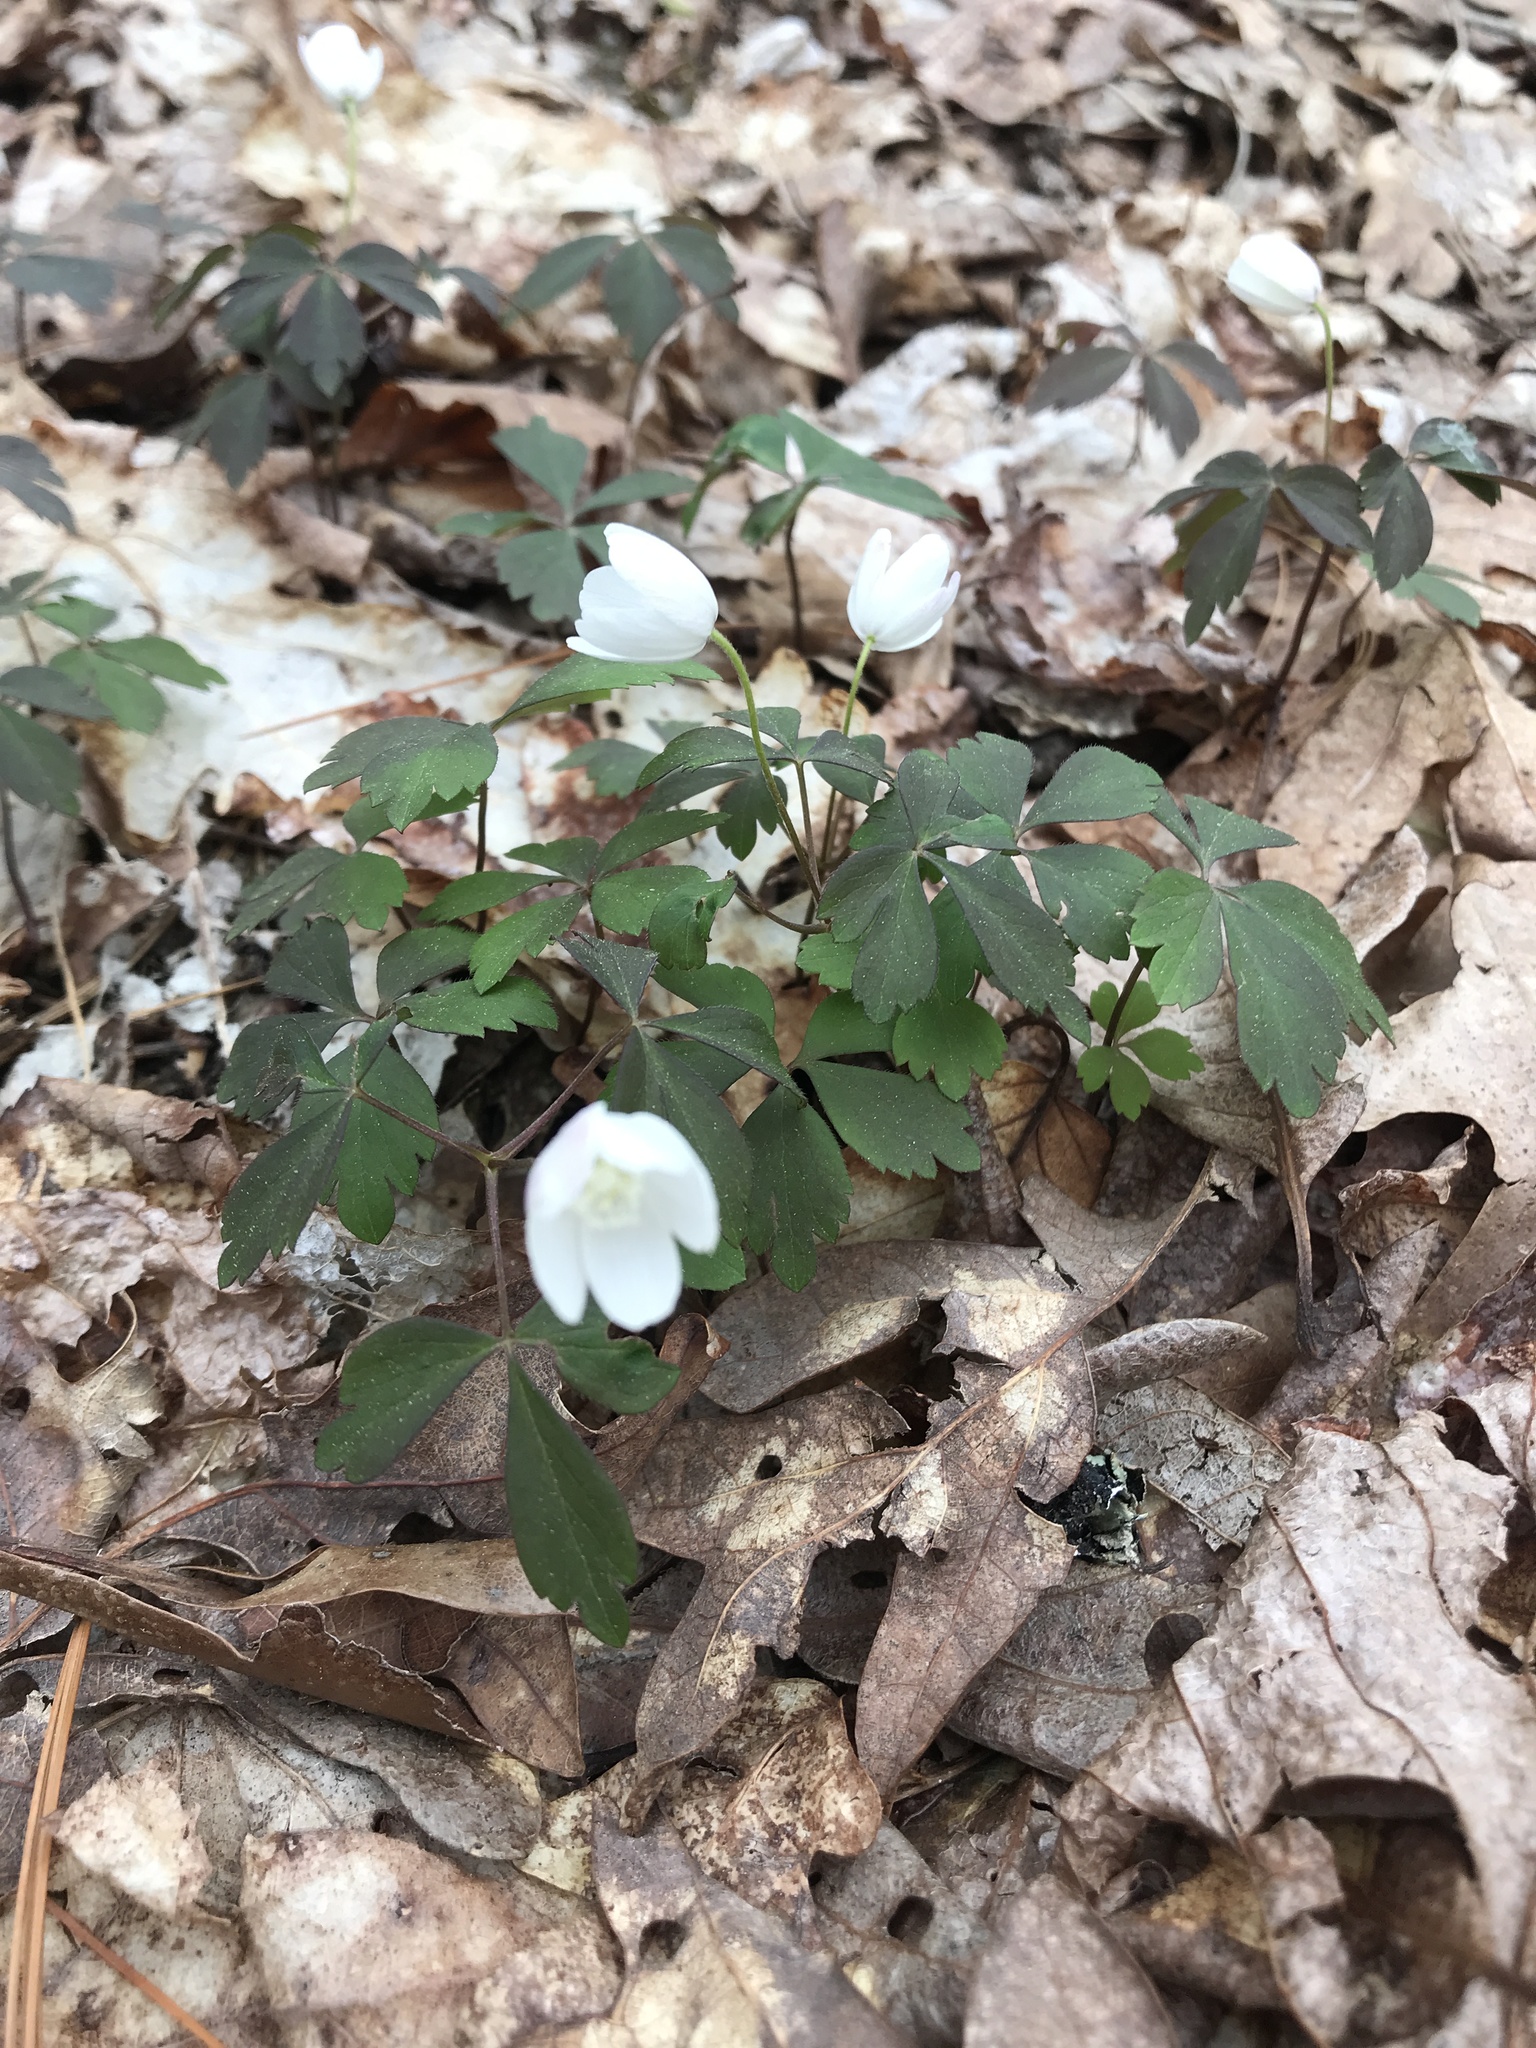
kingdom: Plantae
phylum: Tracheophyta
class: Magnoliopsida
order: Ranunculales
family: Ranunculaceae
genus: Anemone
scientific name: Anemone quinquefolia
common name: Wood anemone
